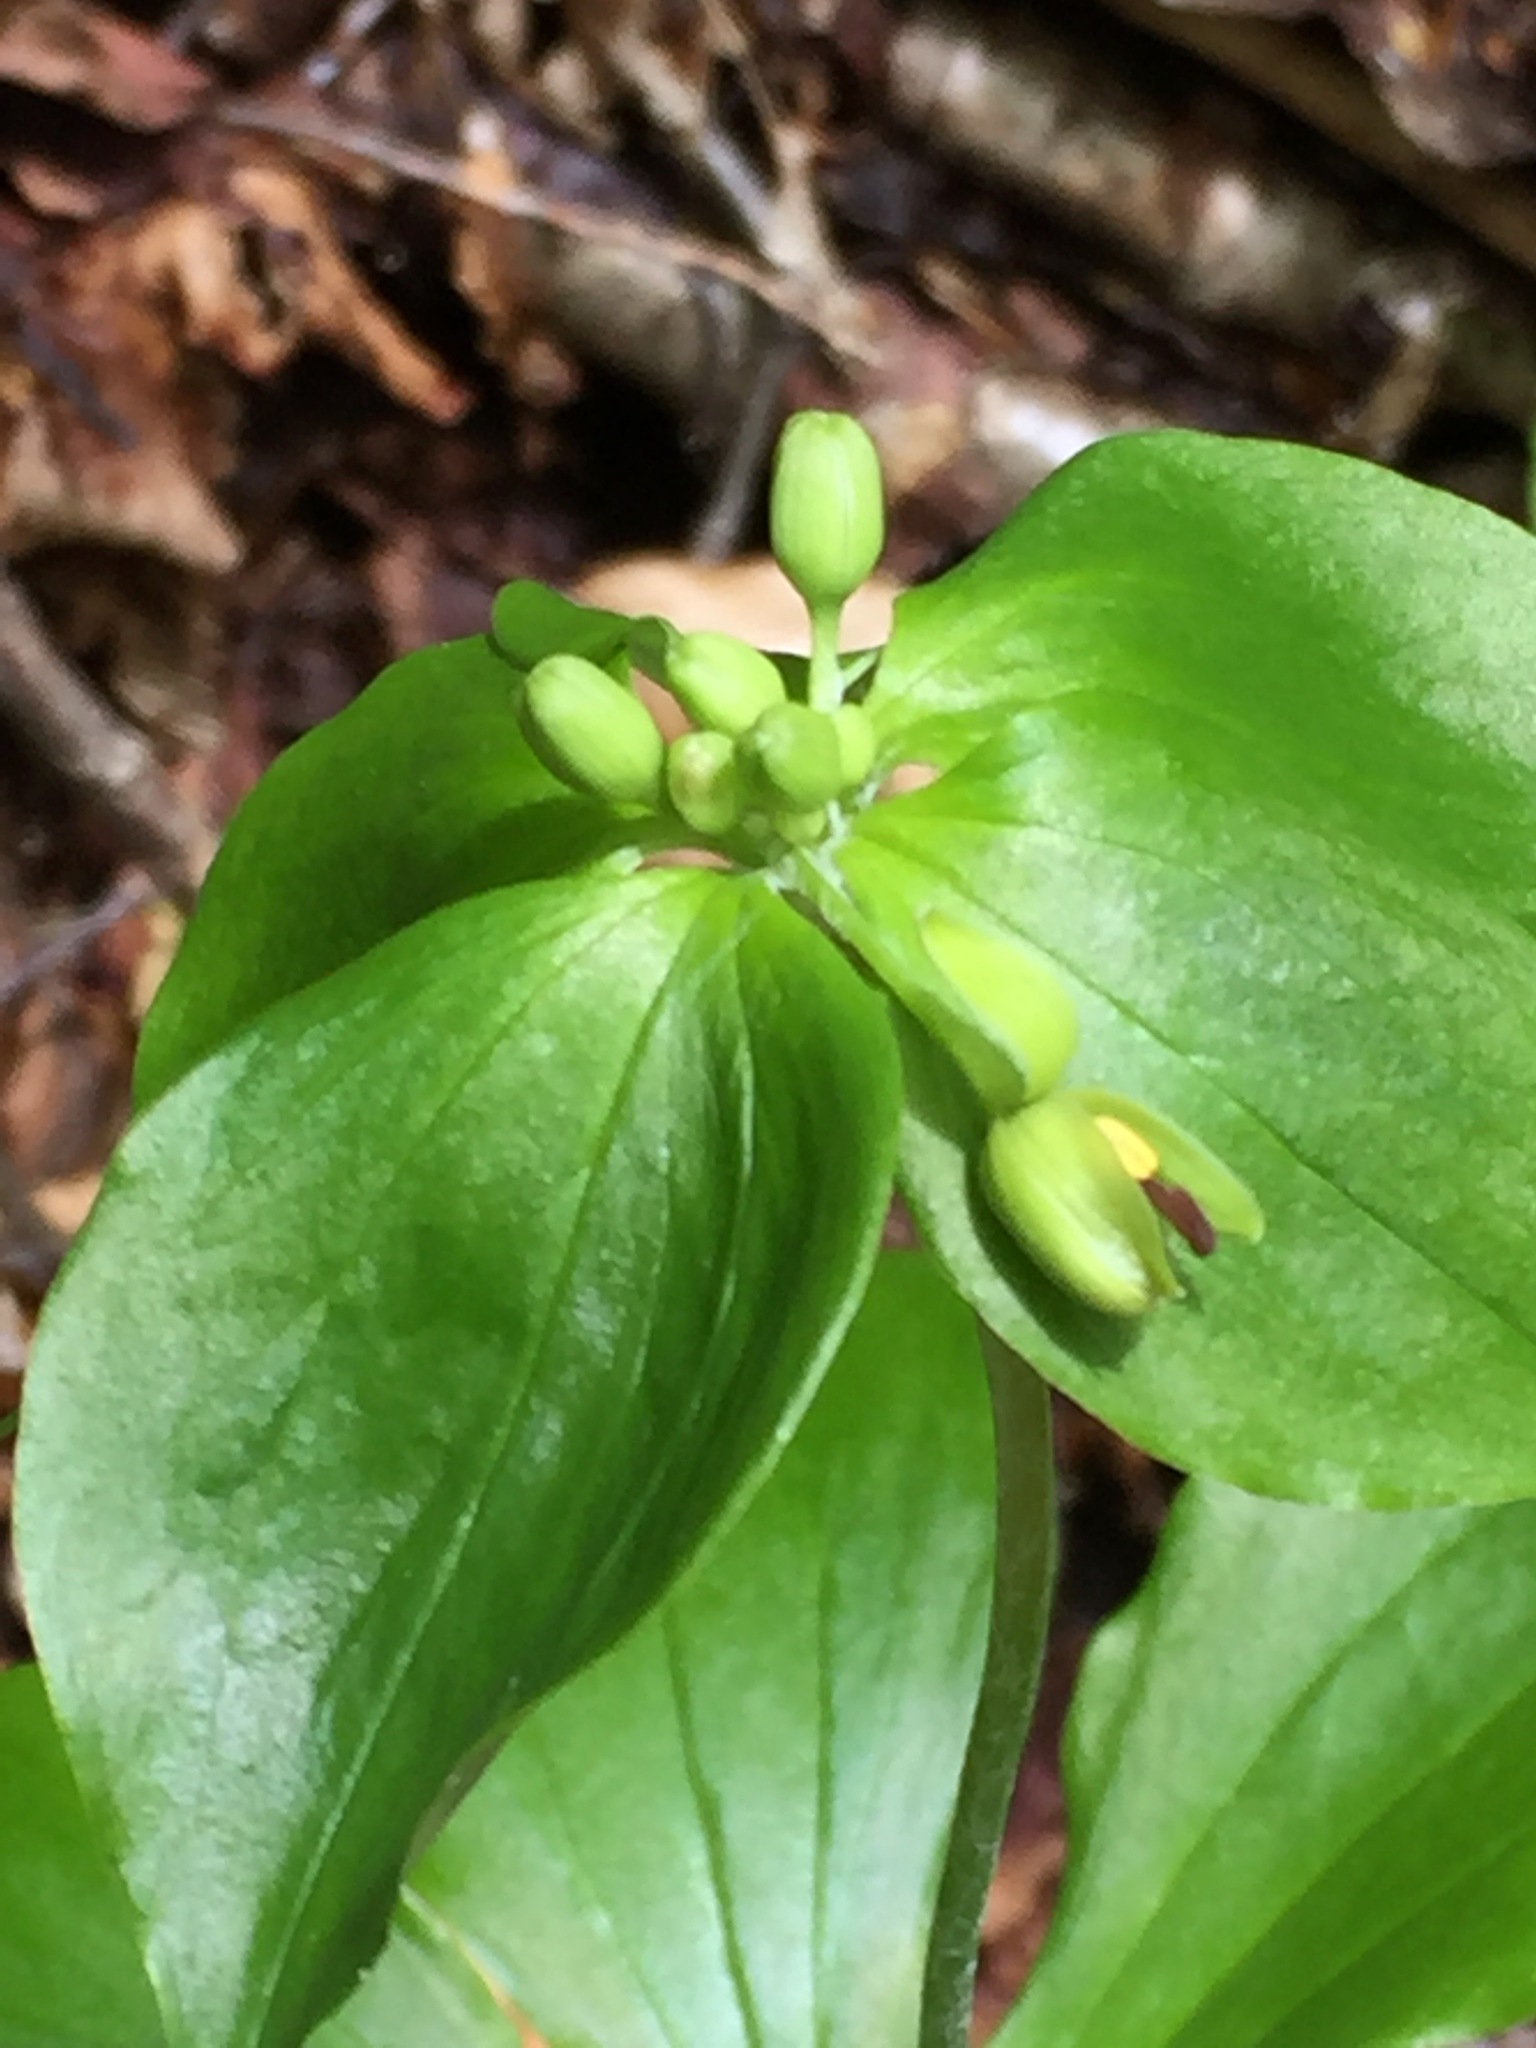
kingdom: Plantae
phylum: Tracheophyta
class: Liliopsida
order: Liliales
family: Liliaceae
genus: Medeola
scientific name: Medeola virginiana
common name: Indian cucumber-root
